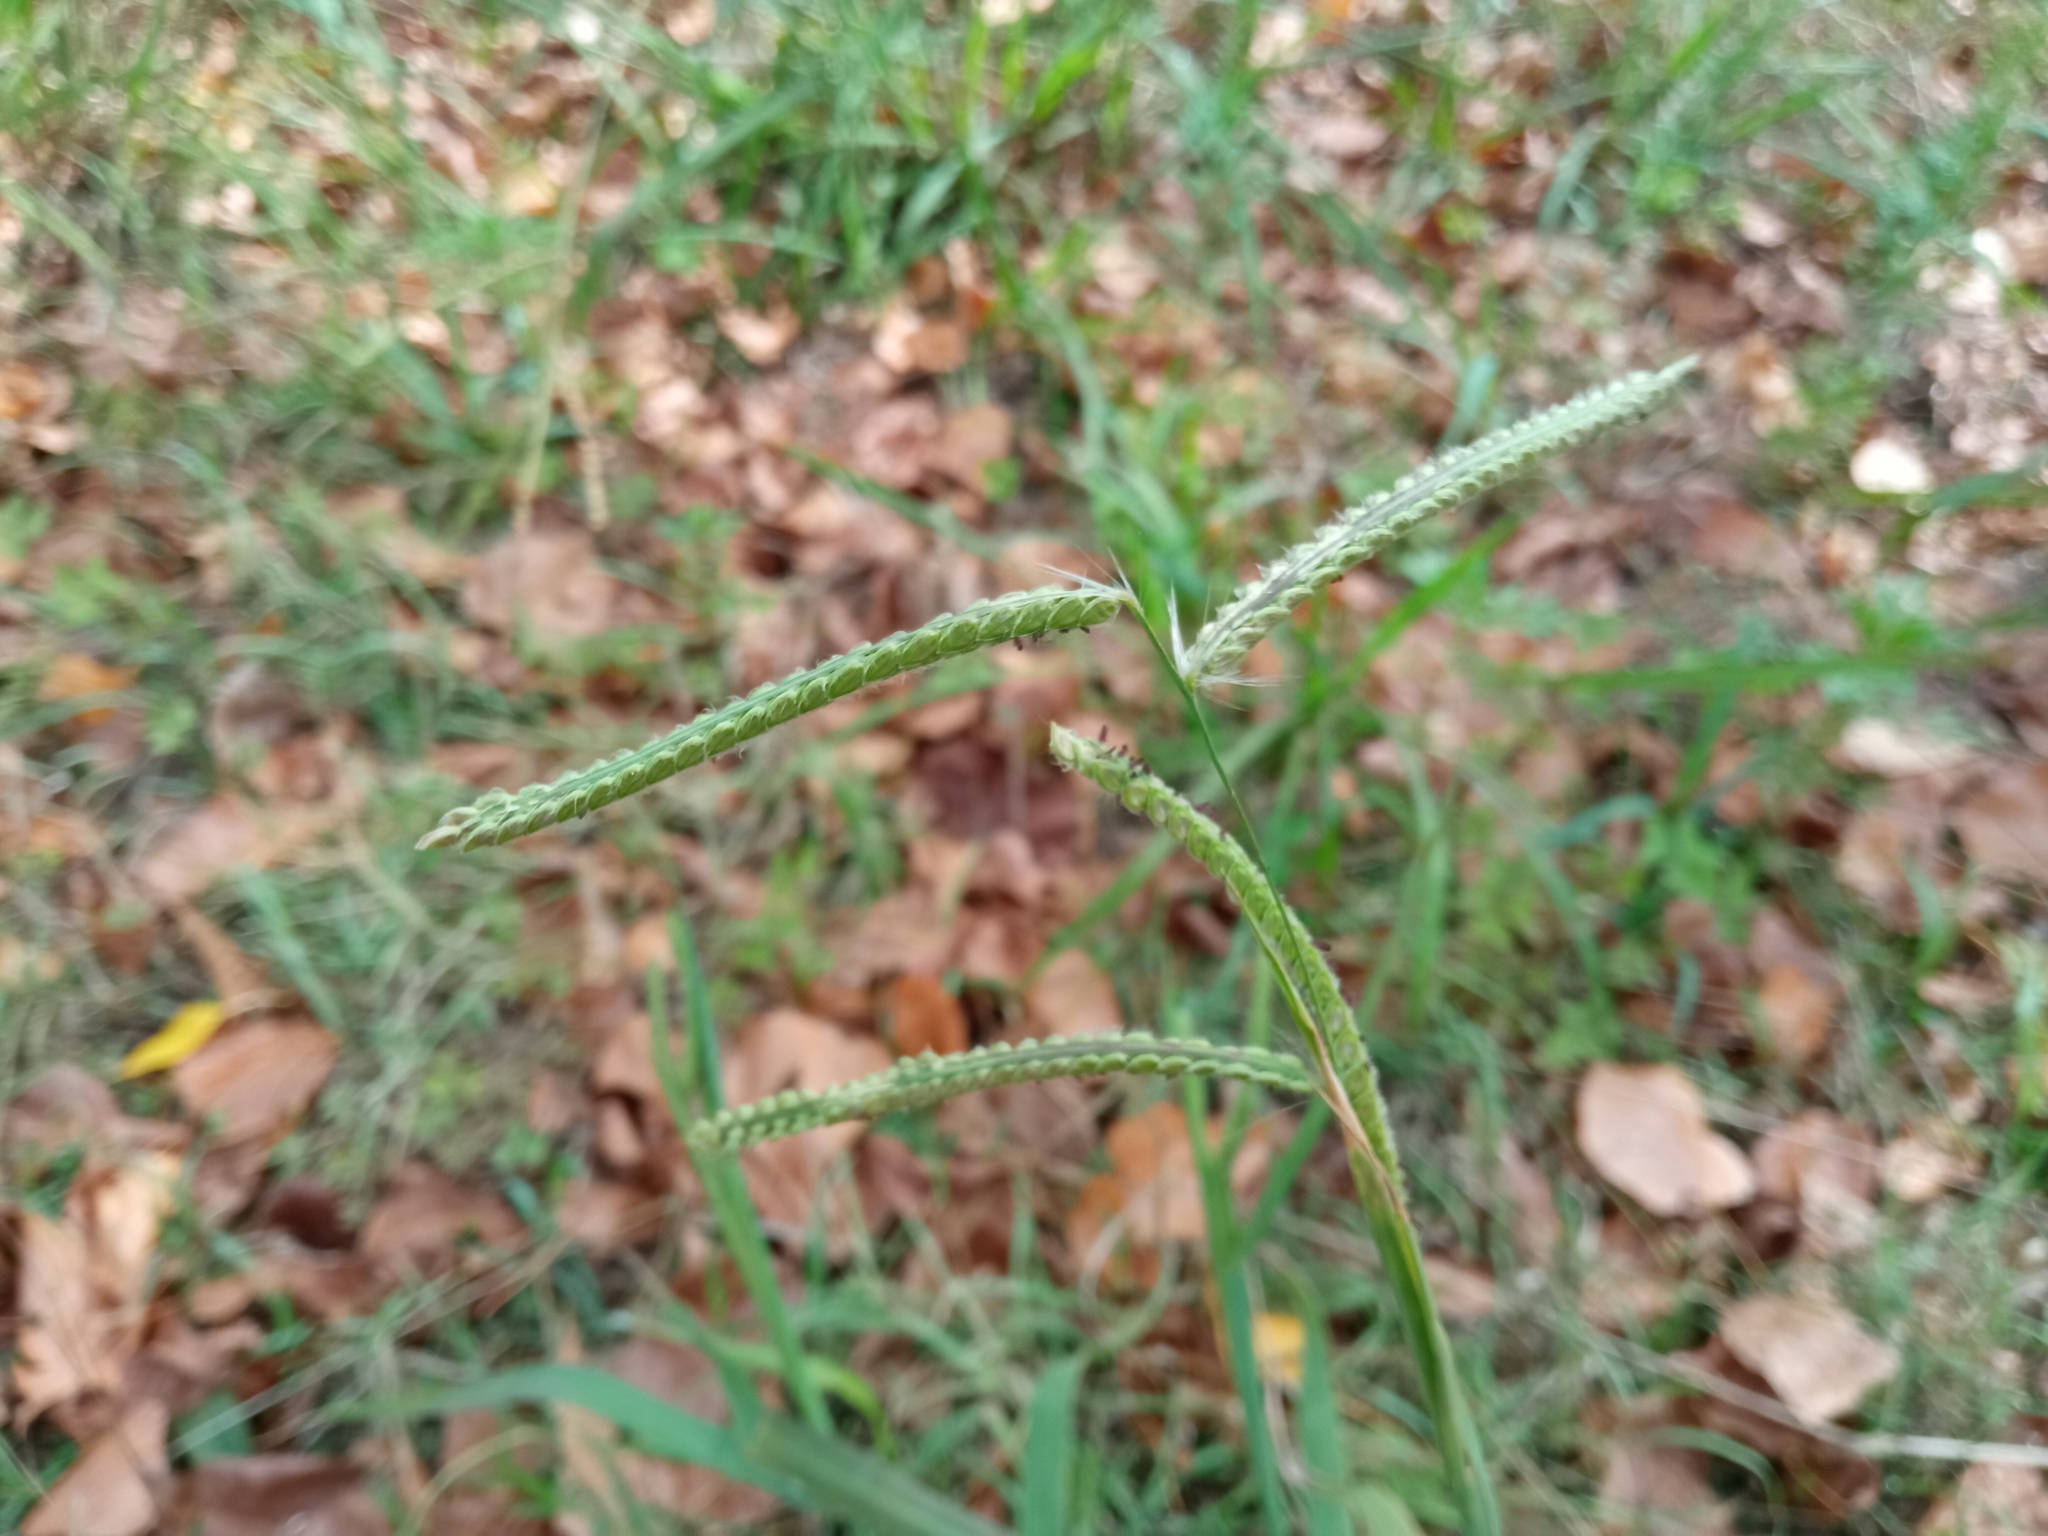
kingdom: Plantae
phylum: Tracheophyta
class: Liliopsida
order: Poales
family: Poaceae
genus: Paspalum
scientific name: Paspalum dilatatum
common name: Dallisgrass
